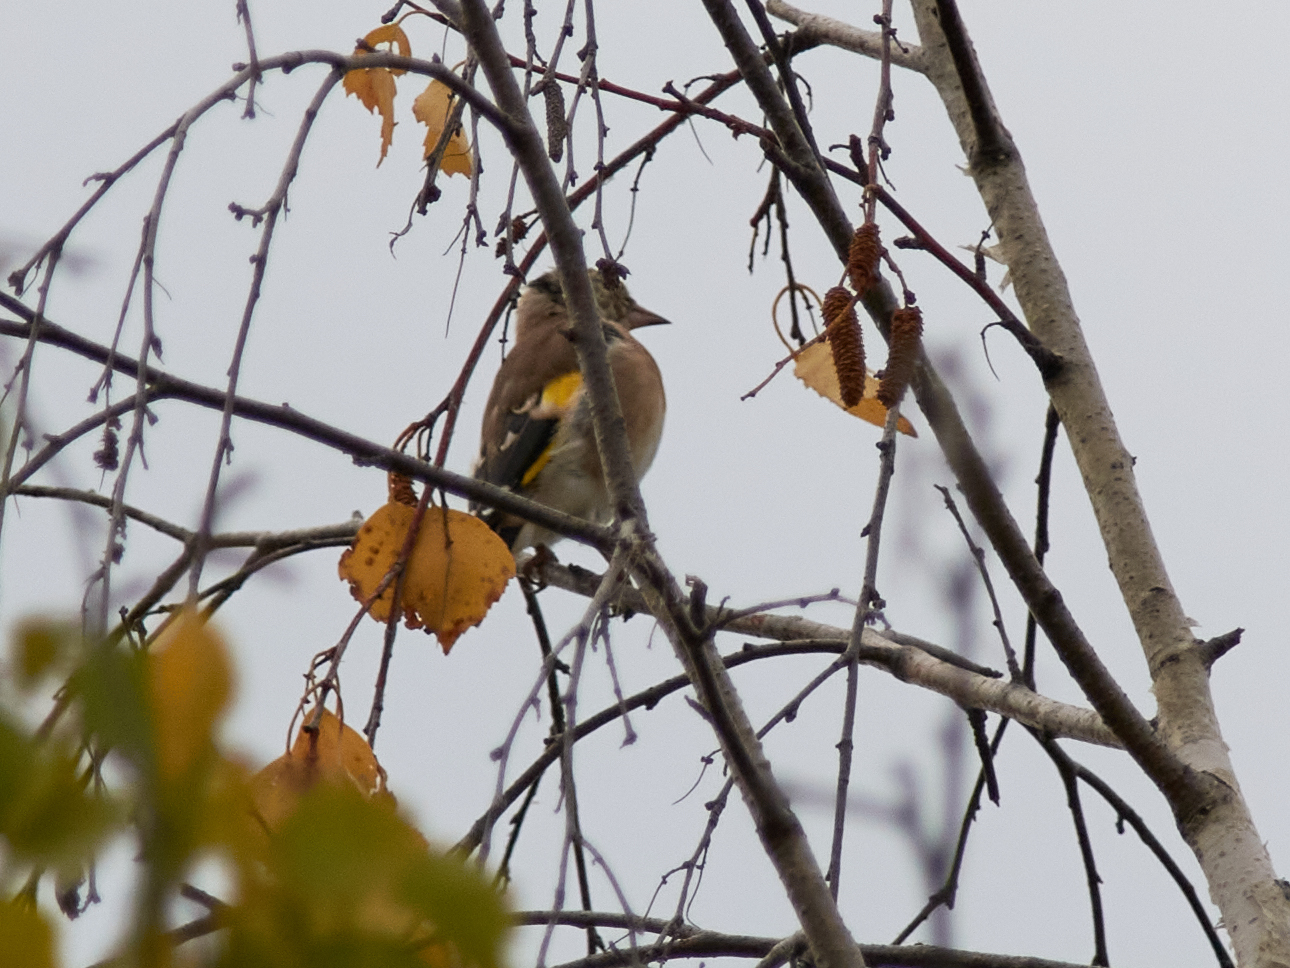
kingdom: Animalia
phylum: Chordata
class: Aves
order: Passeriformes
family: Fringillidae
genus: Carduelis
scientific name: Carduelis carduelis
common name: European goldfinch
